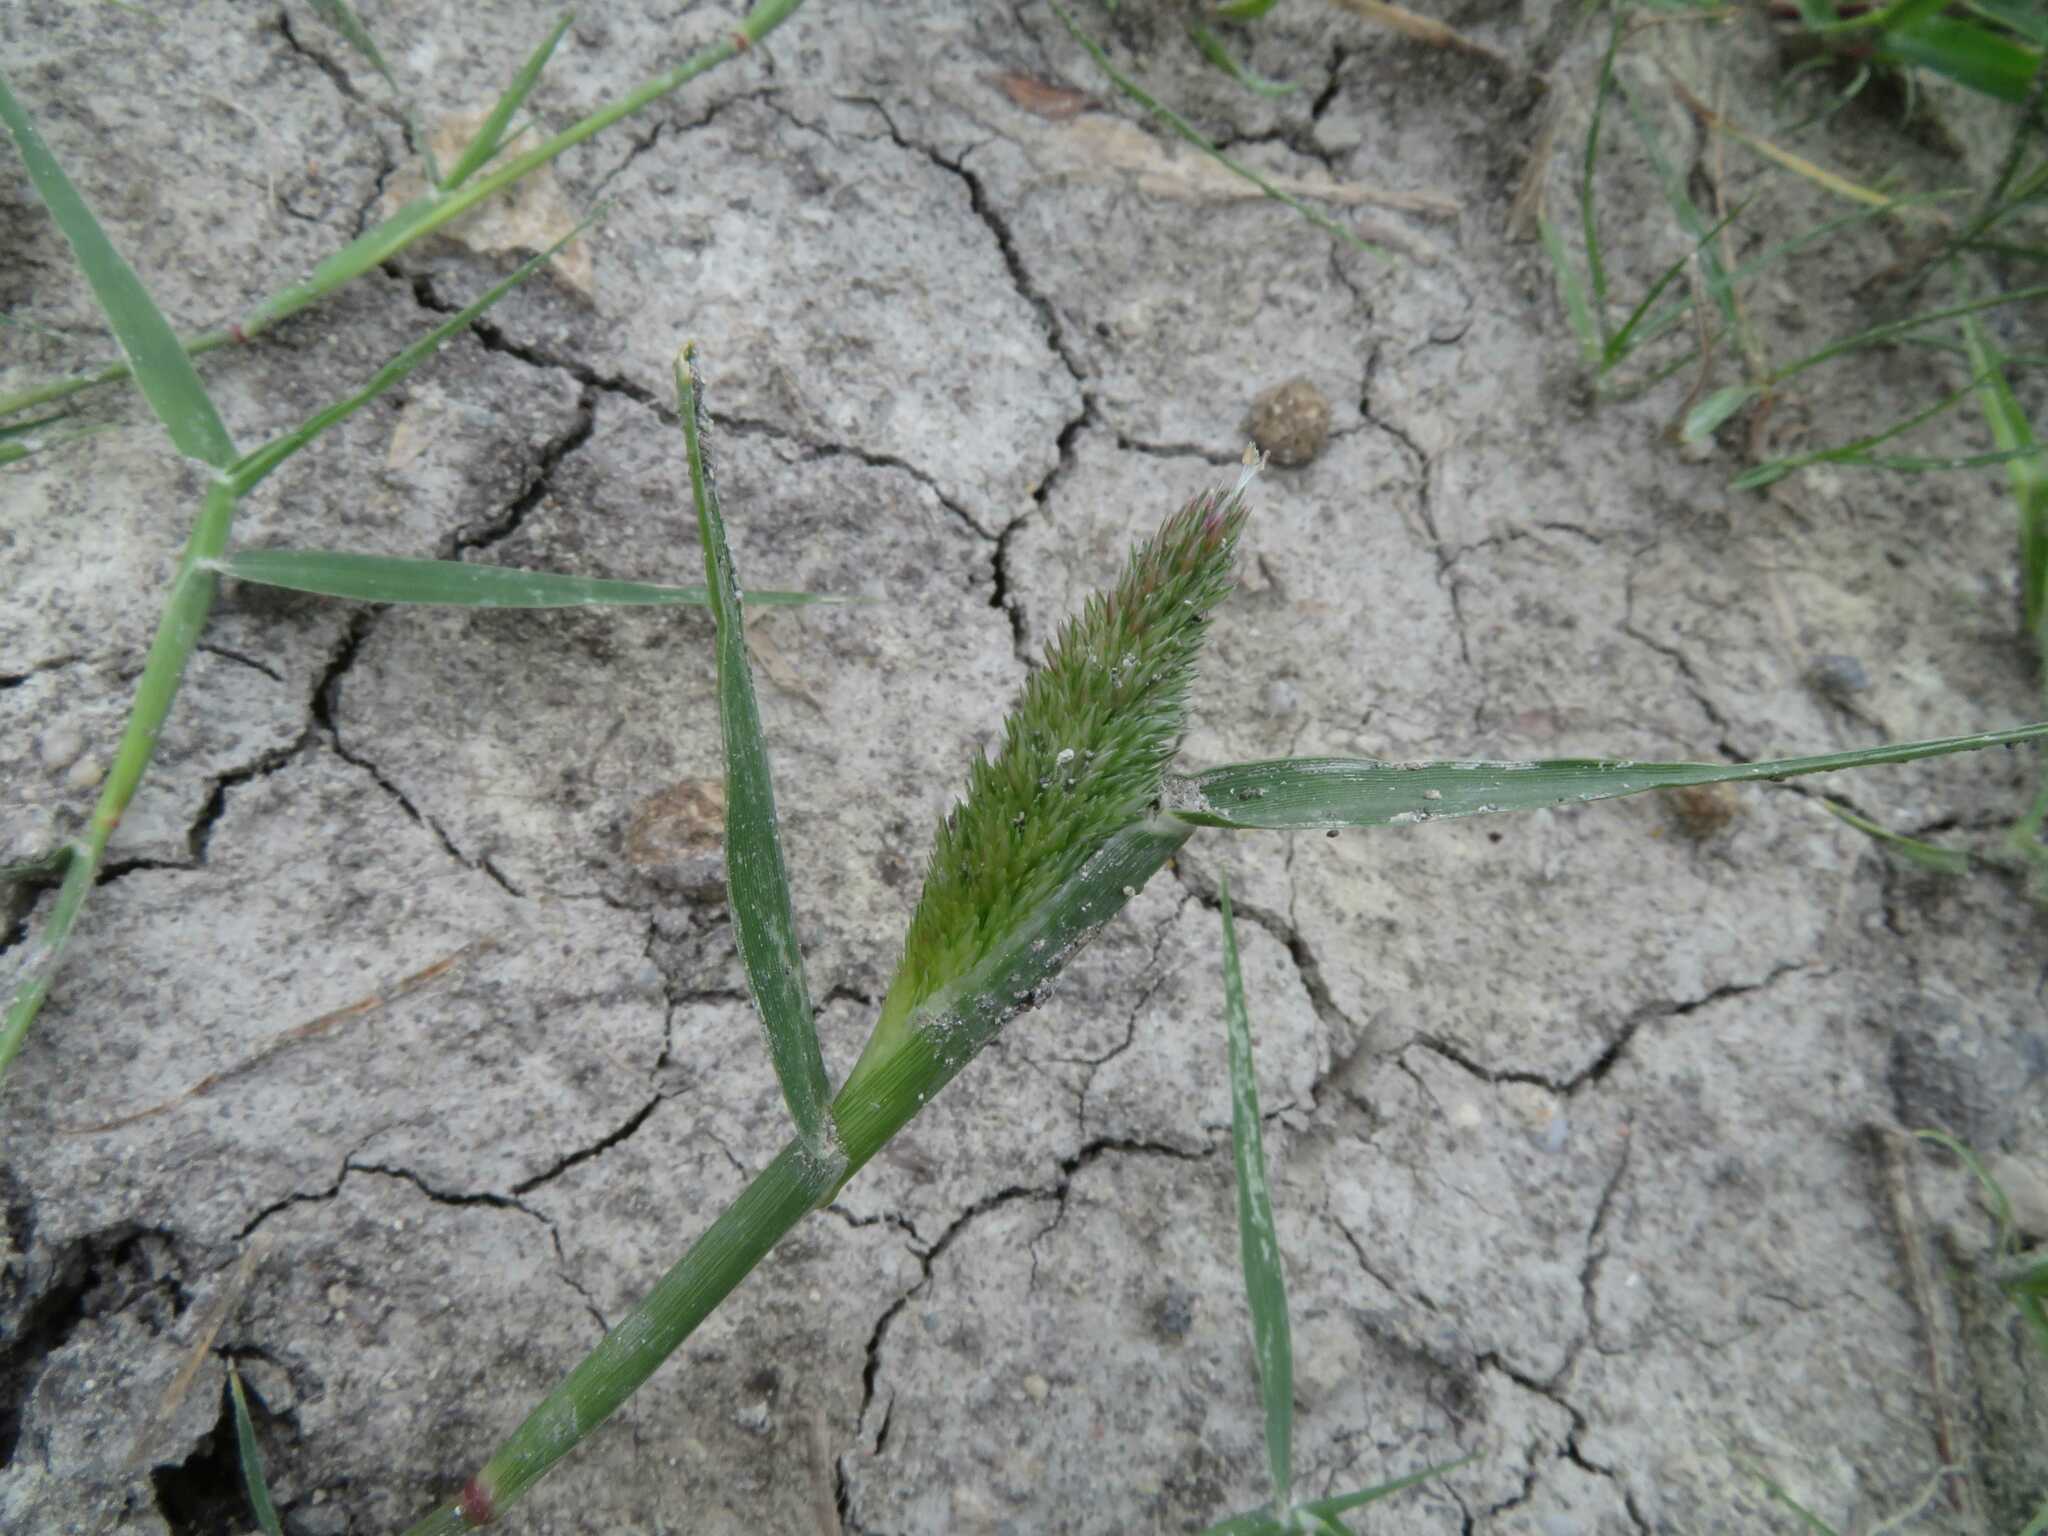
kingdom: Plantae
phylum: Tracheophyta
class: Liliopsida
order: Poales
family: Poaceae
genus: Sporobolus
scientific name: Sporobolus schoenoides
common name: Rush-like timothy
